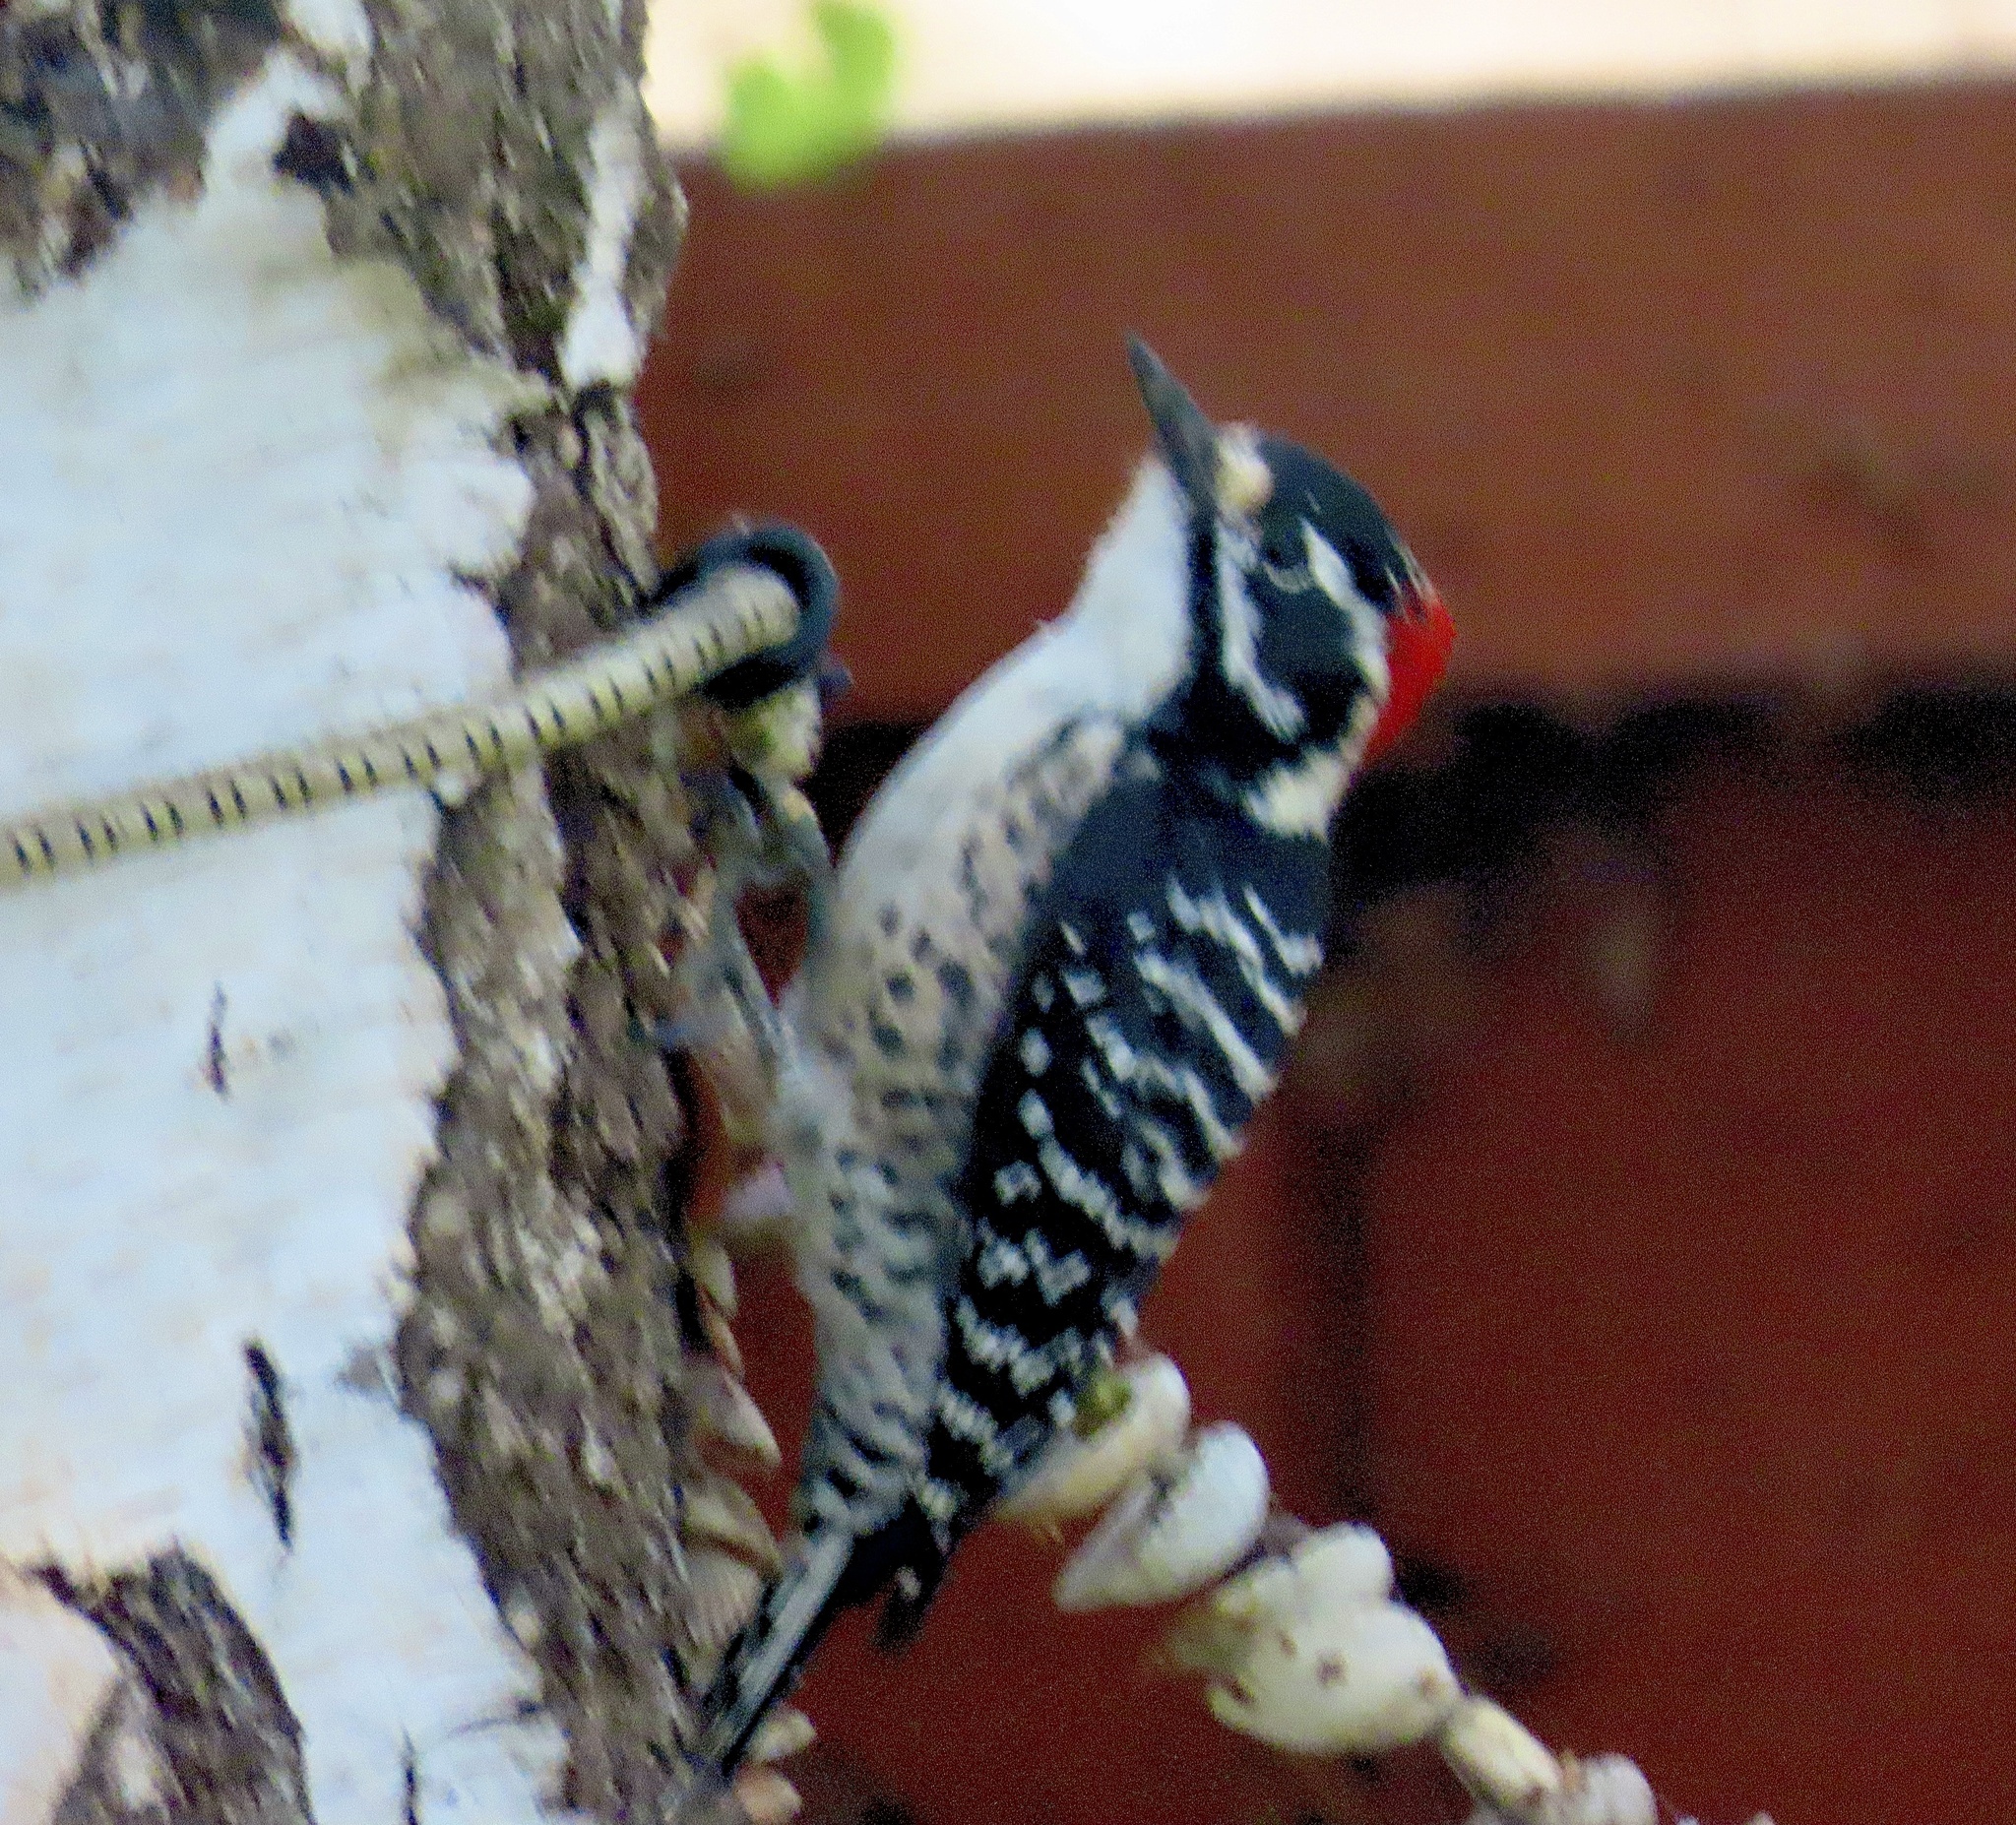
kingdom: Animalia
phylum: Chordata
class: Aves
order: Piciformes
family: Picidae
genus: Dryobates
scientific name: Dryobates nuttallii
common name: Nuttall's woodpecker
